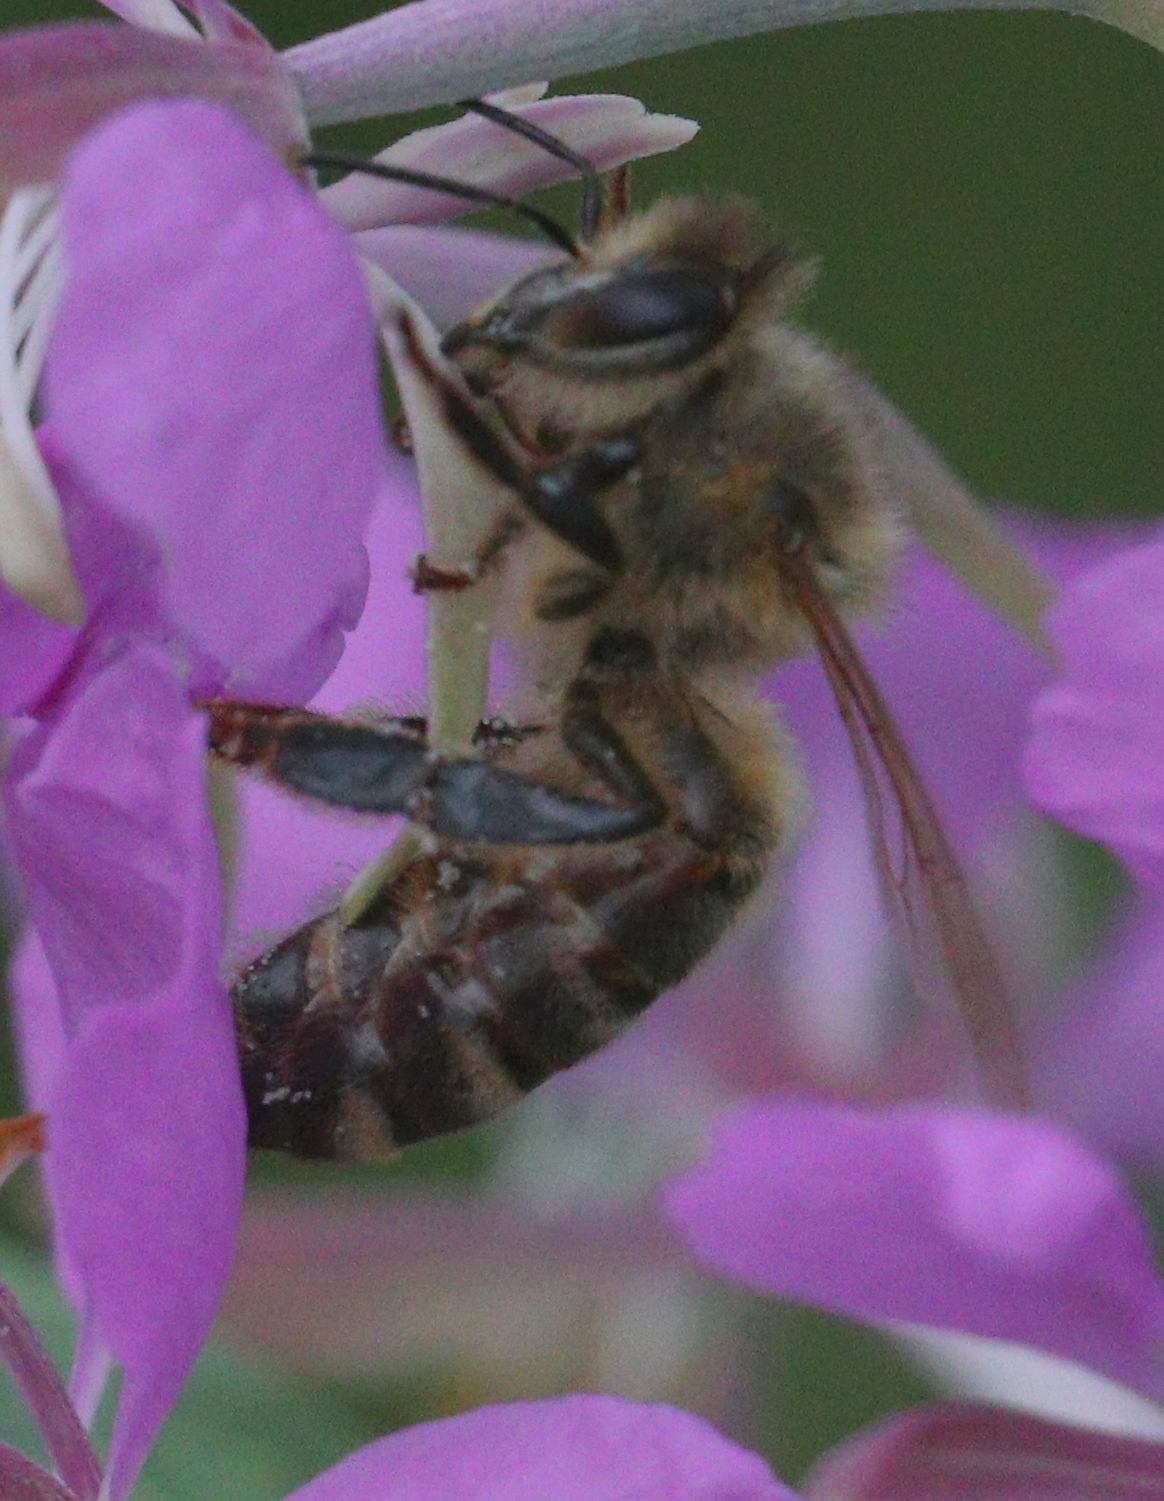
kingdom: Animalia
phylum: Arthropoda
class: Insecta
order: Hymenoptera
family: Apidae
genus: Apis
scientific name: Apis mellifera
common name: Honey bee
